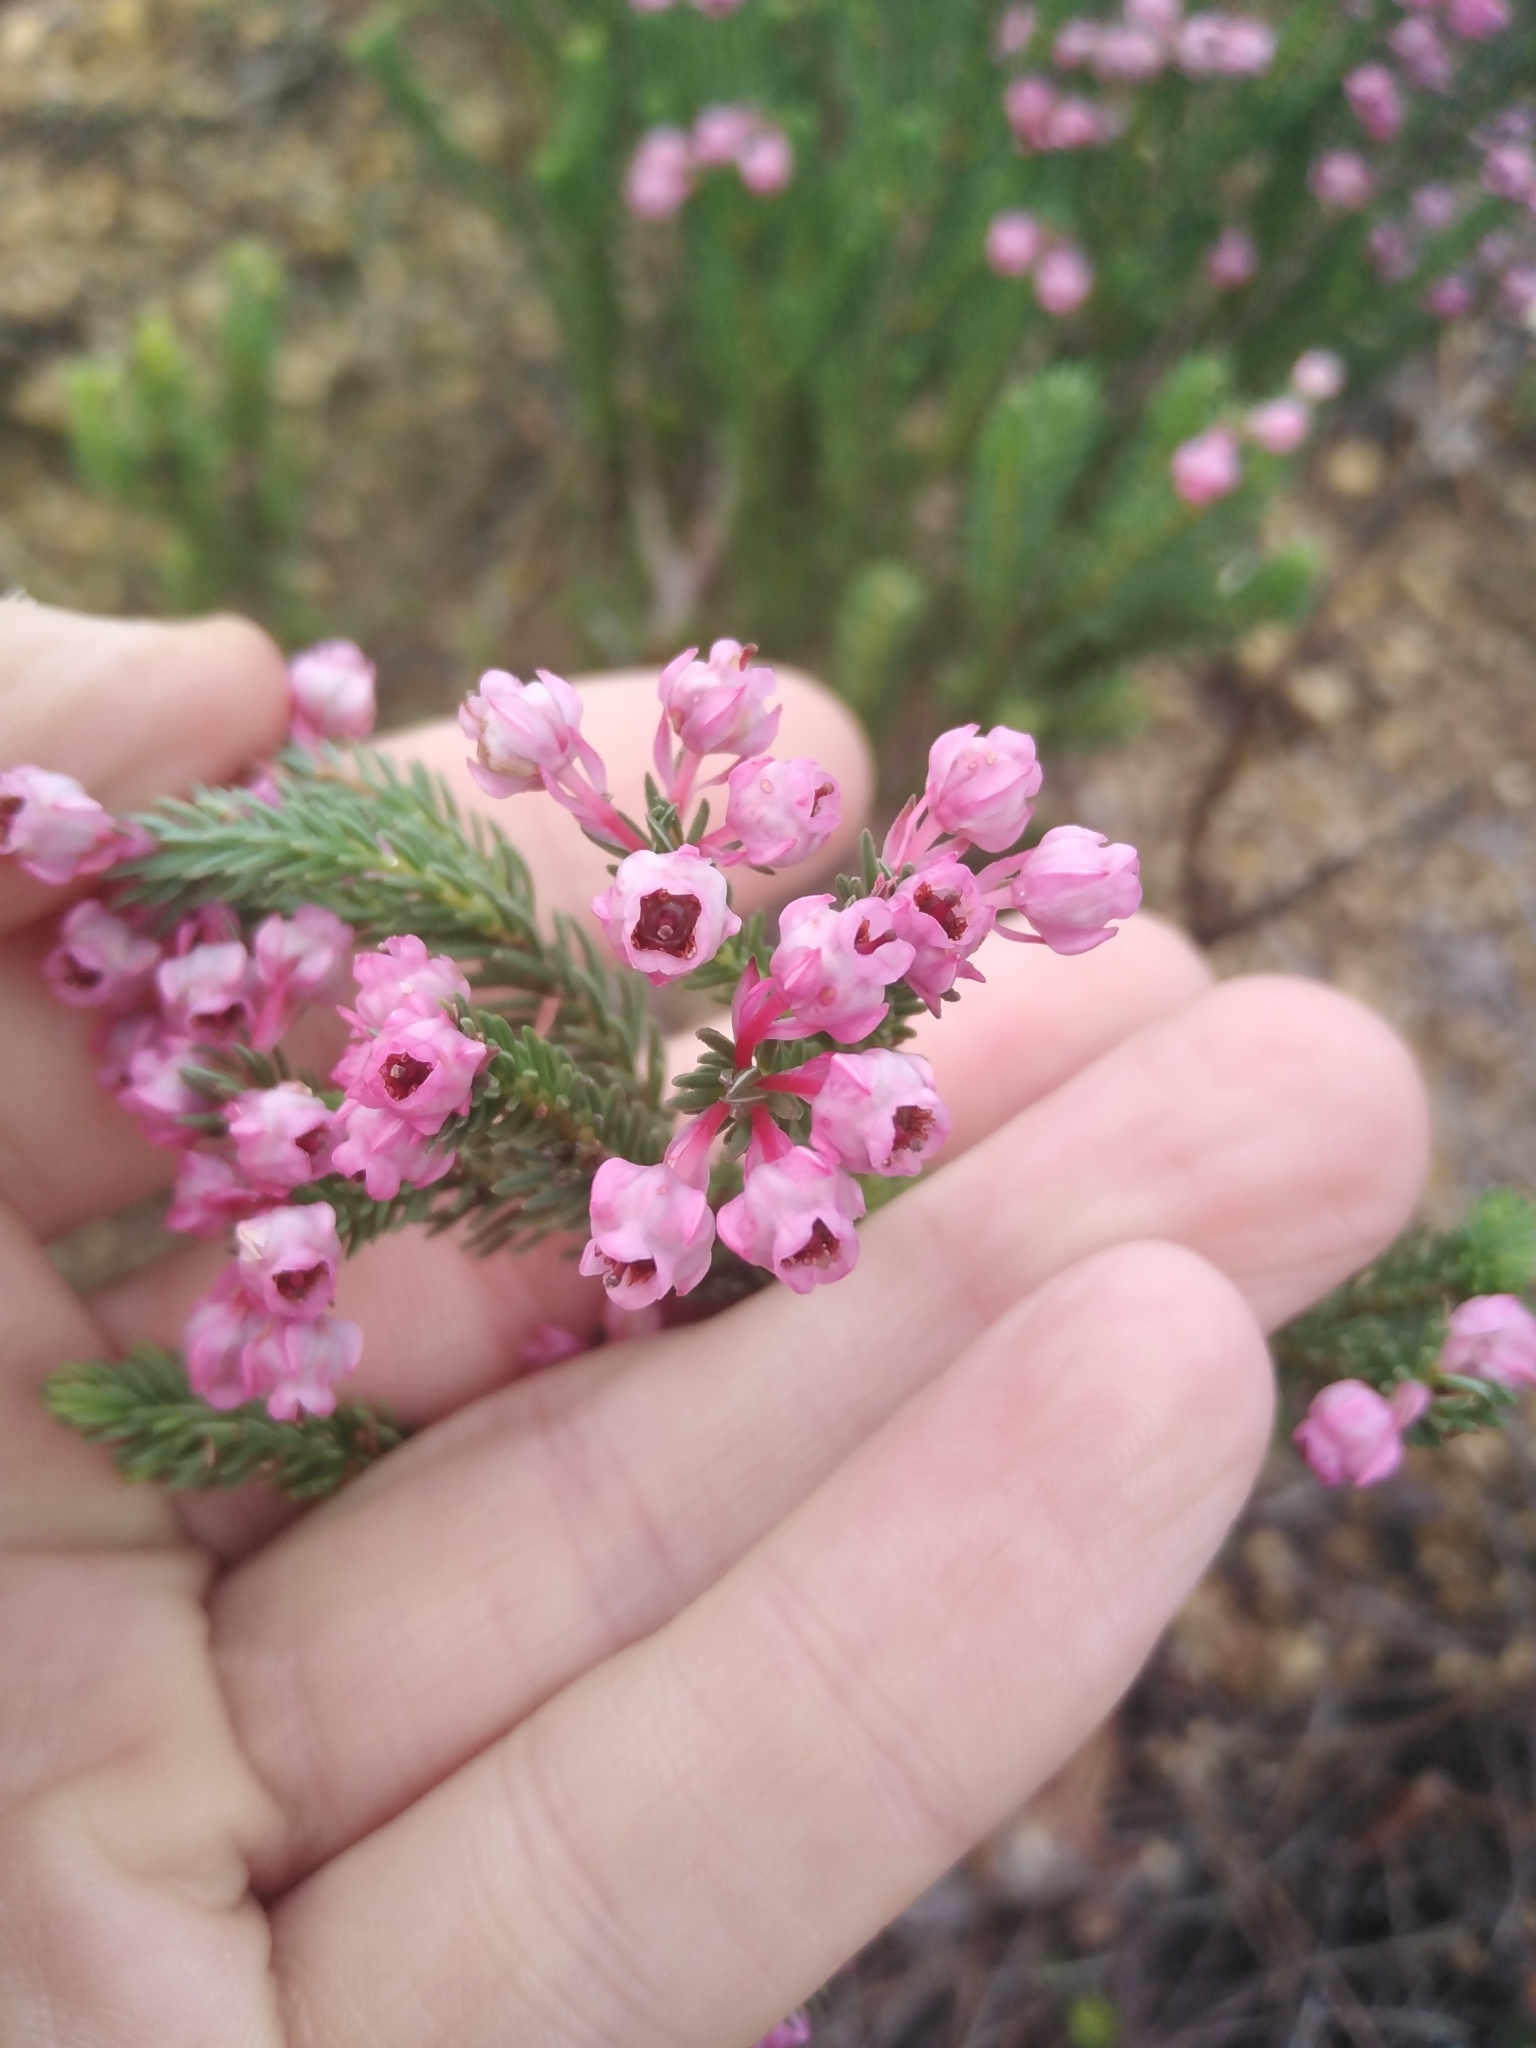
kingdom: Plantae
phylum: Tracheophyta
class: Magnoliopsida
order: Ericales
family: Ericaceae
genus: Erica
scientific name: Erica baccans
